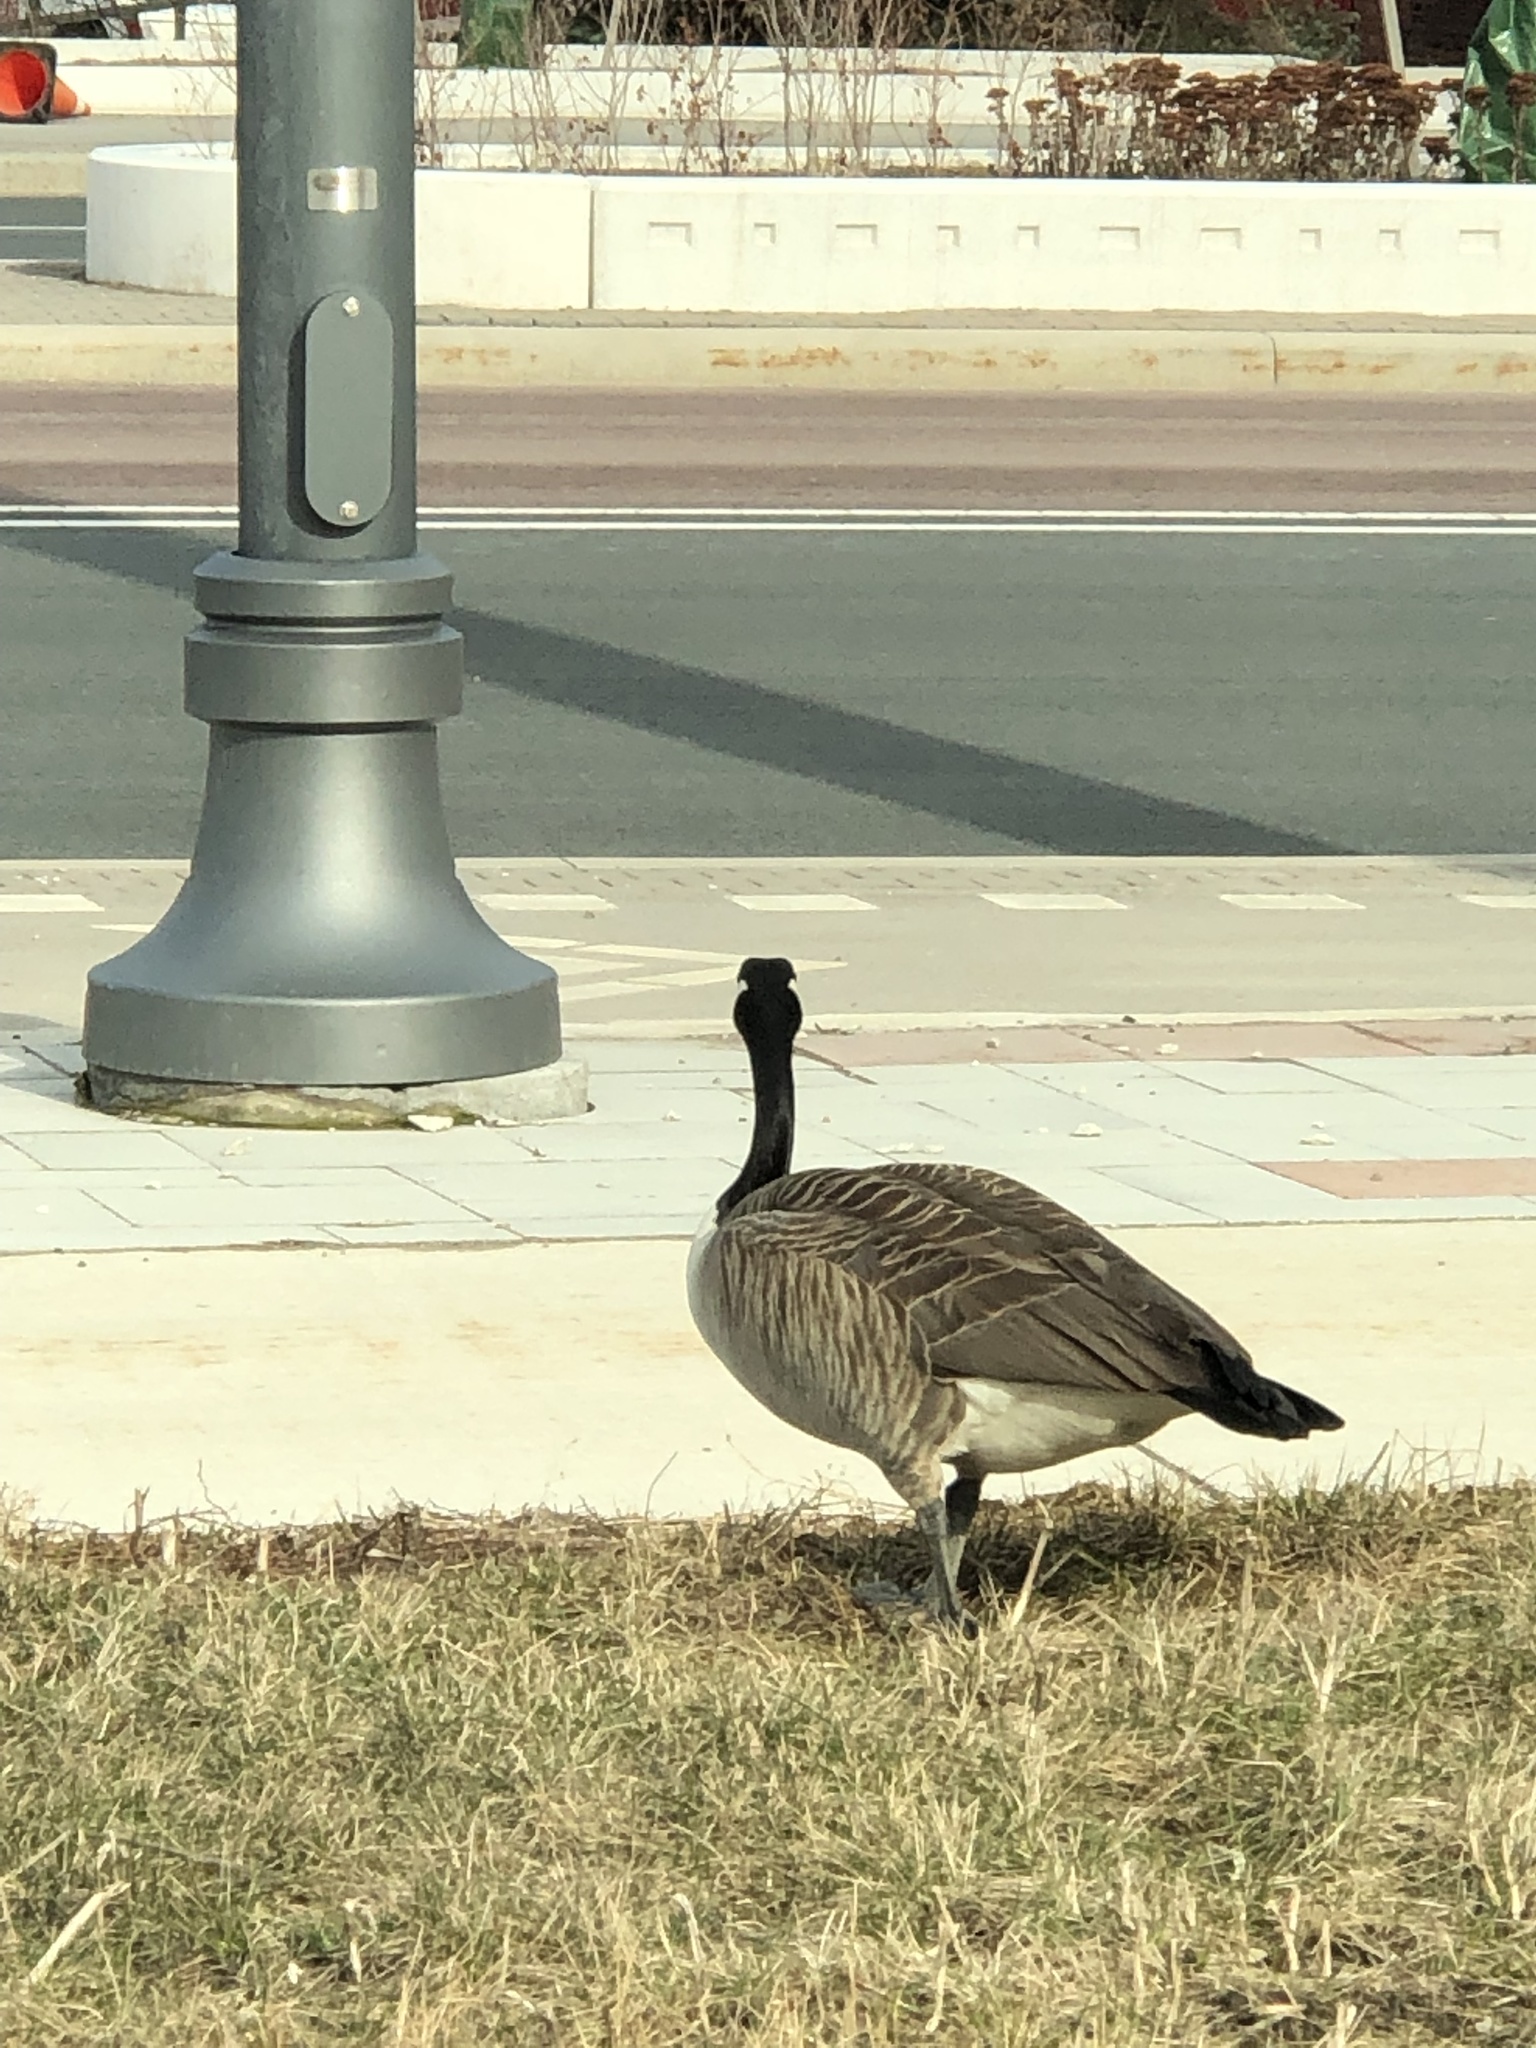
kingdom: Animalia
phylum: Chordata
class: Aves
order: Anseriformes
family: Anatidae
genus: Branta
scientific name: Branta canadensis
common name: Canada goose
